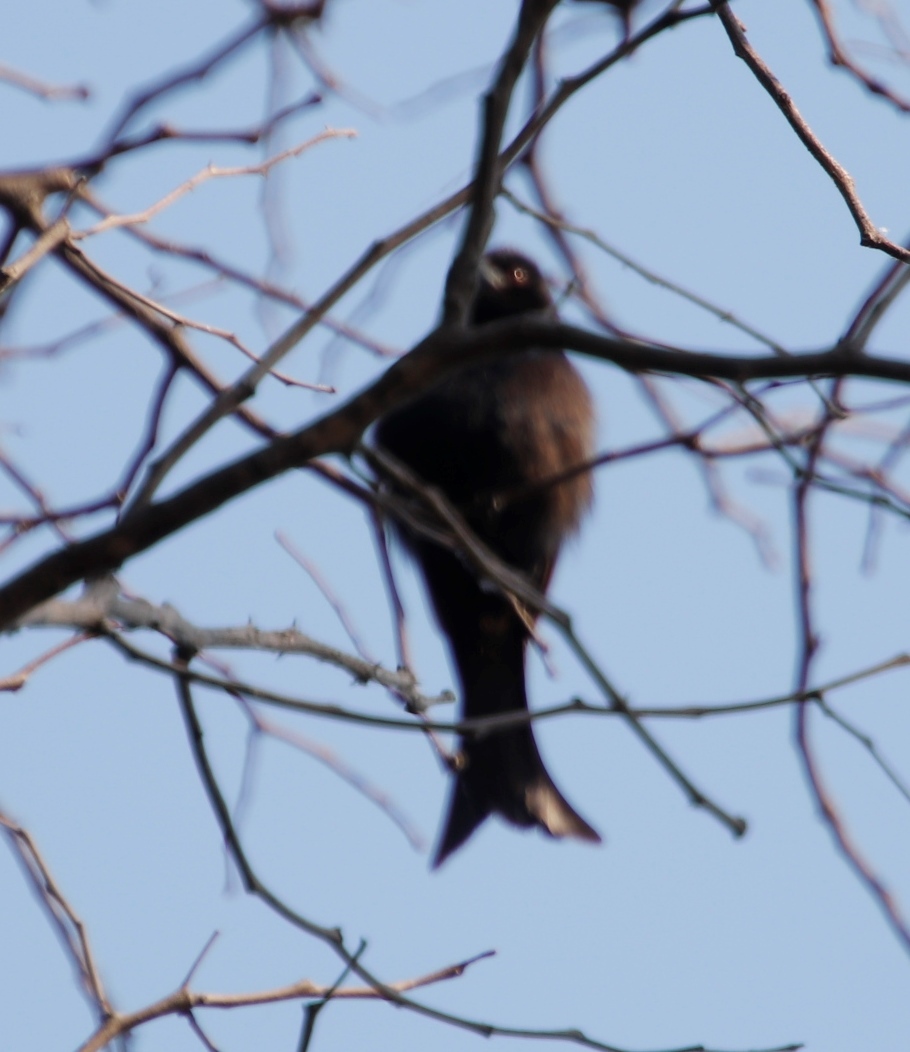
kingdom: Animalia
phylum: Chordata
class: Aves
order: Passeriformes
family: Dicruridae
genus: Dicrurus
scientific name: Dicrurus adsimilis
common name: Fork-tailed drongo
